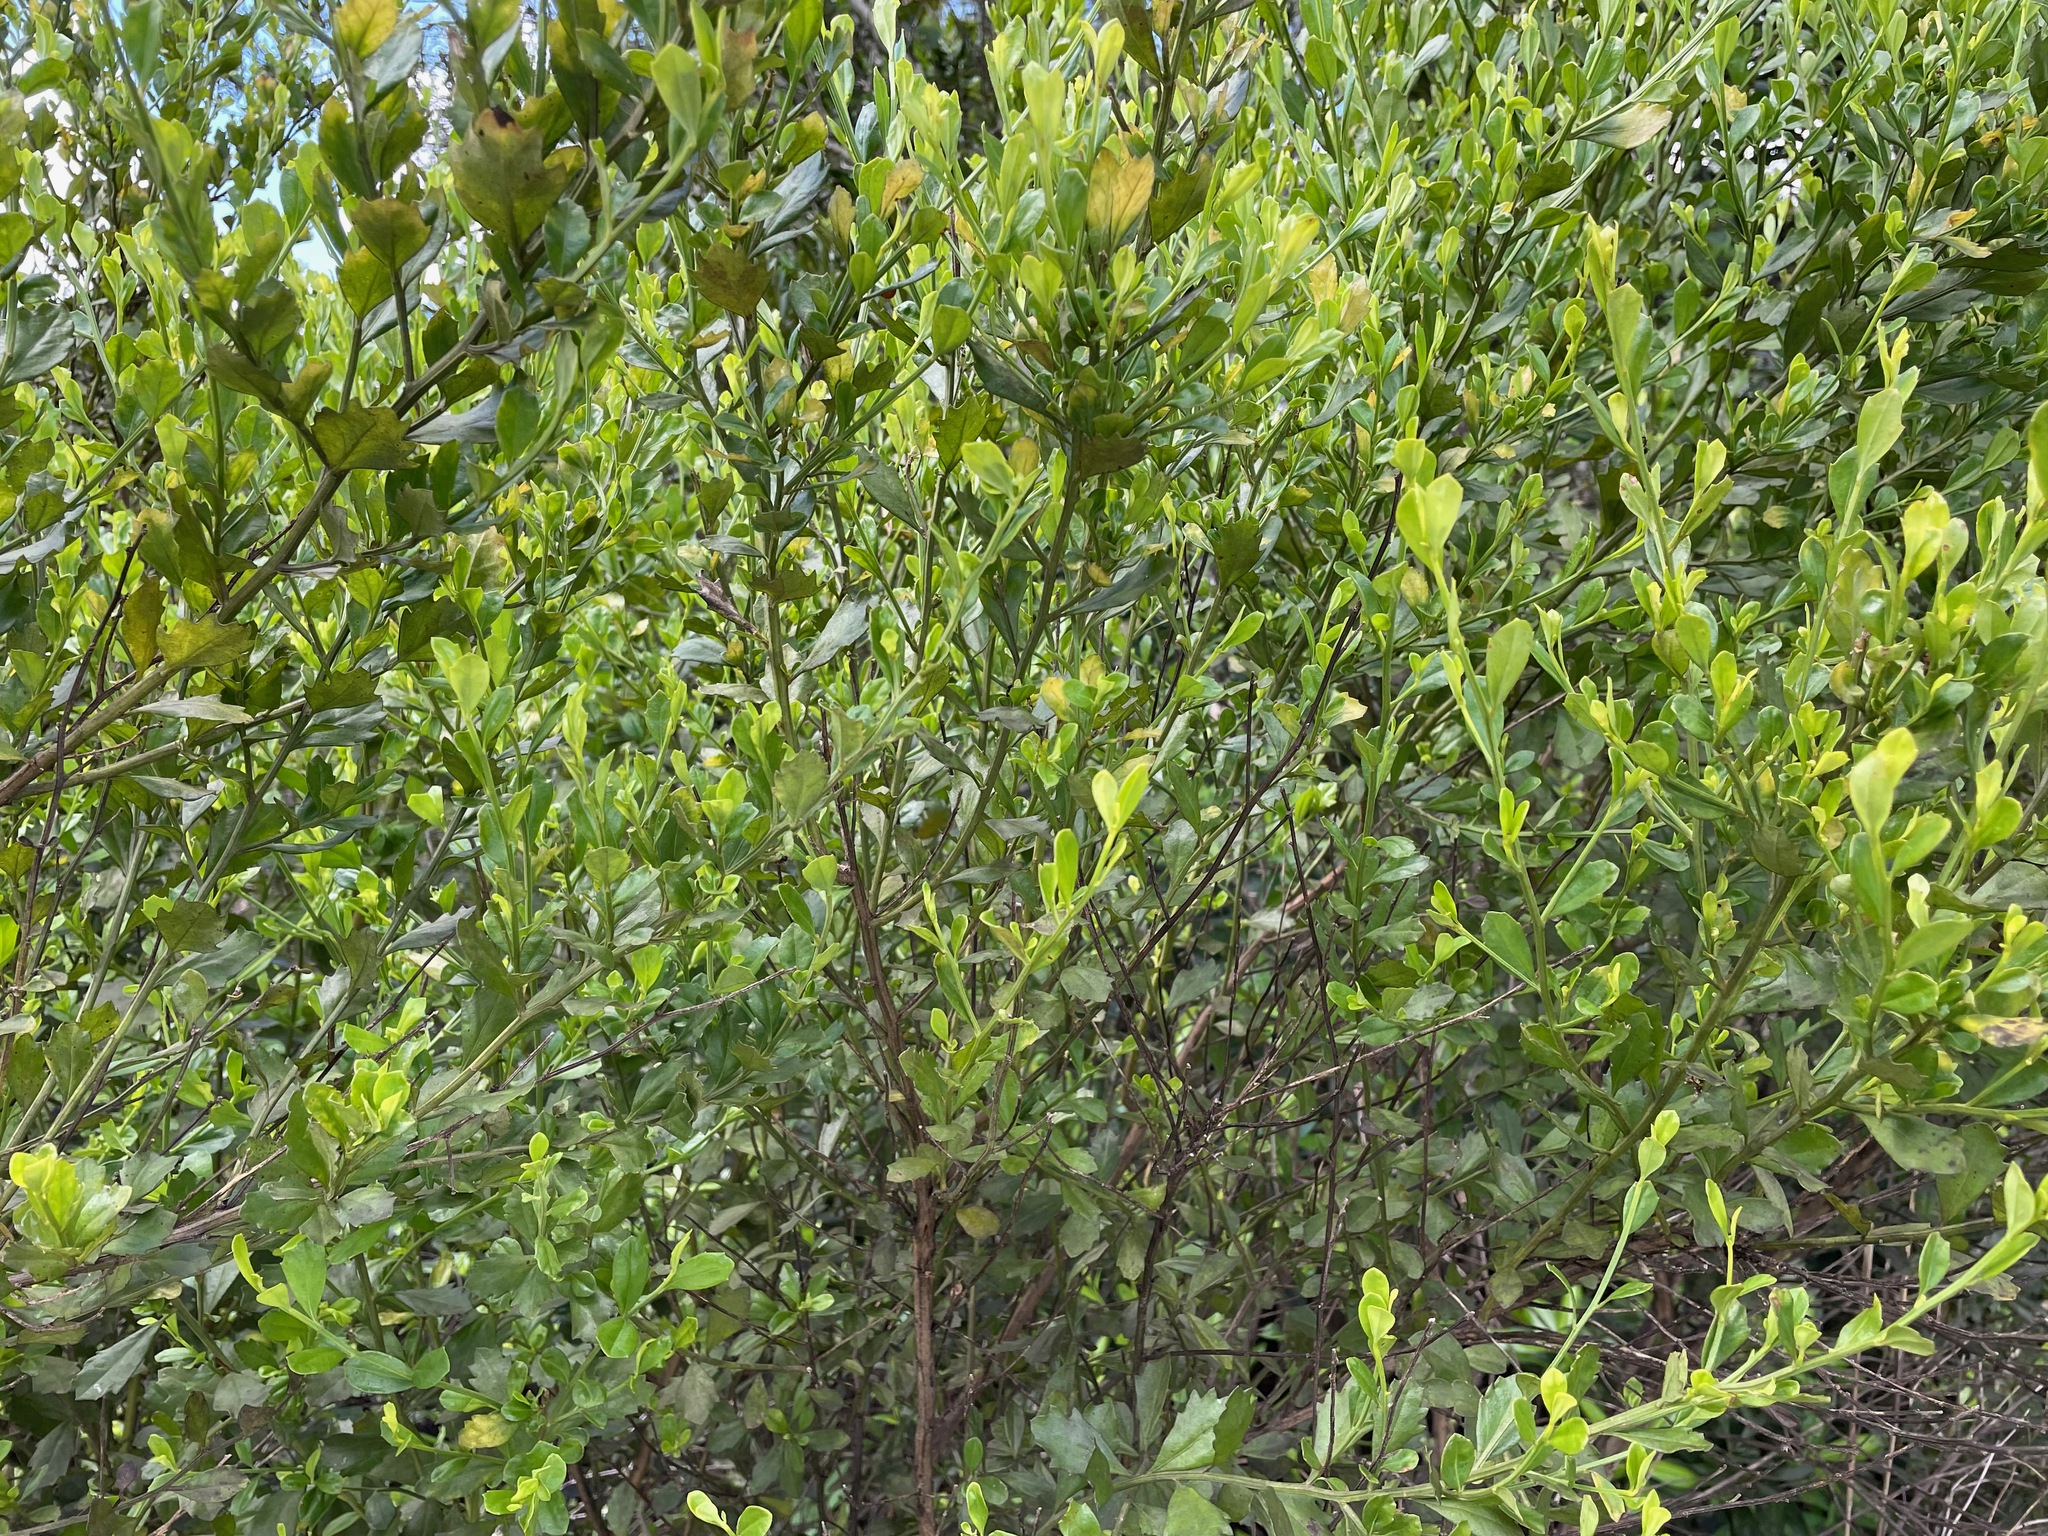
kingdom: Plantae
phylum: Tracheophyta
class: Magnoliopsida
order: Asterales
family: Asteraceae
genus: Baccharis
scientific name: Baccharis halimifolia
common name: Eastern baccharis
